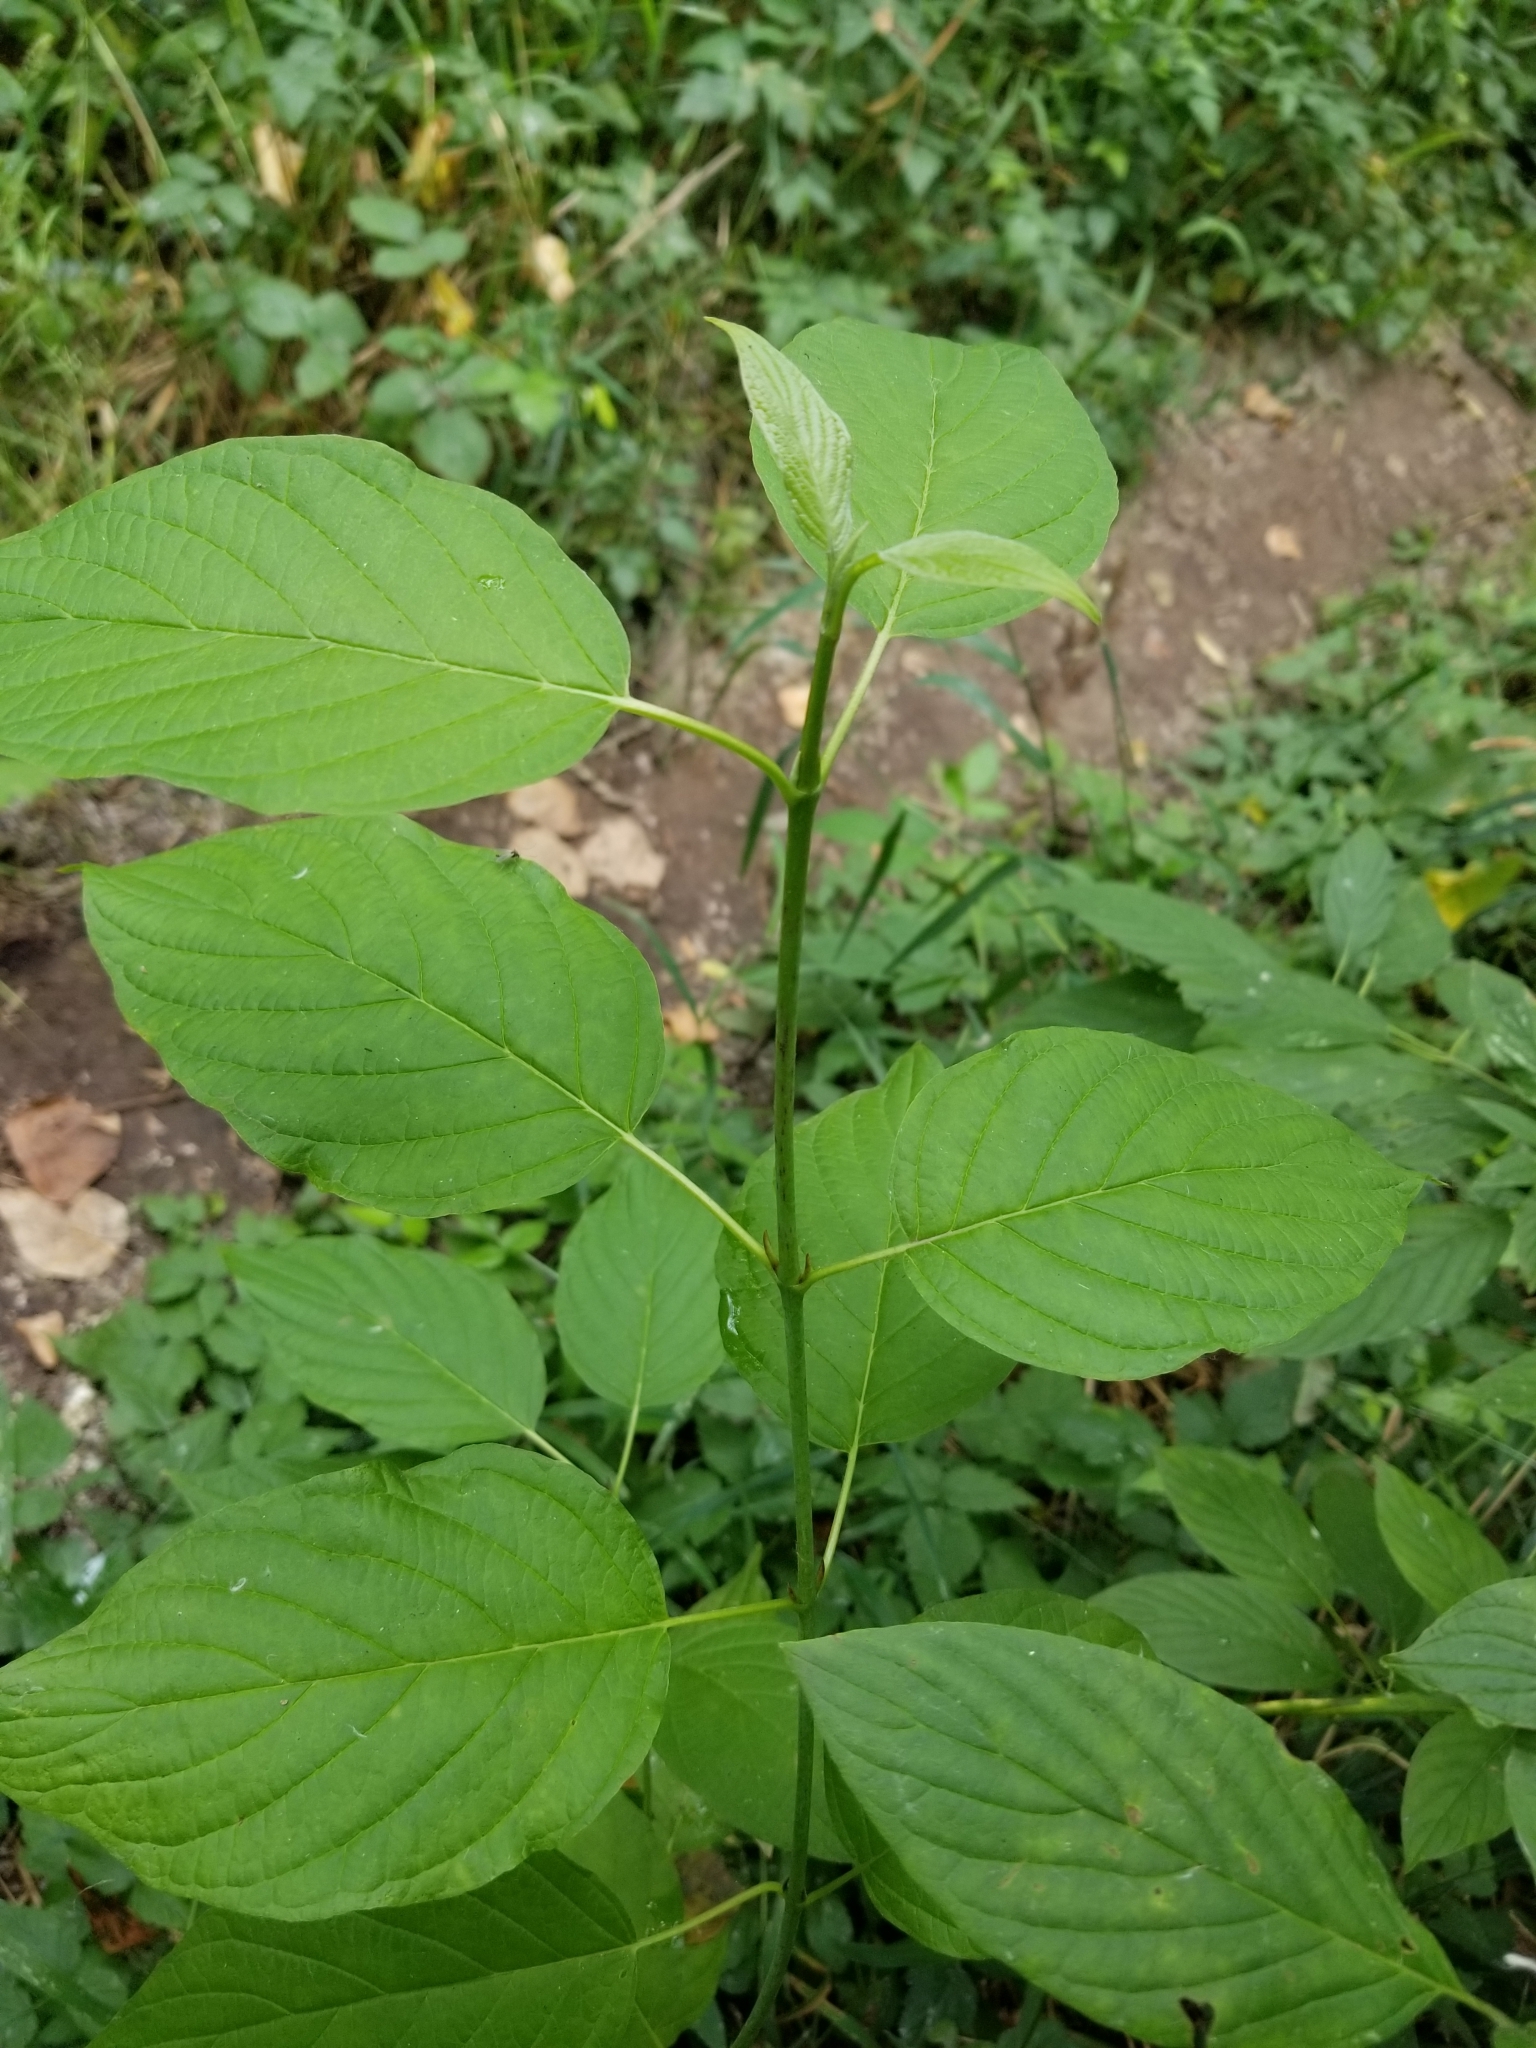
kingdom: Plantae
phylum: Tracheophyta
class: Magnoliopsida
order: Cornales
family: Cornaceae
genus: Cornus
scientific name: Cornus sericea
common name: Red-osier dogwood
